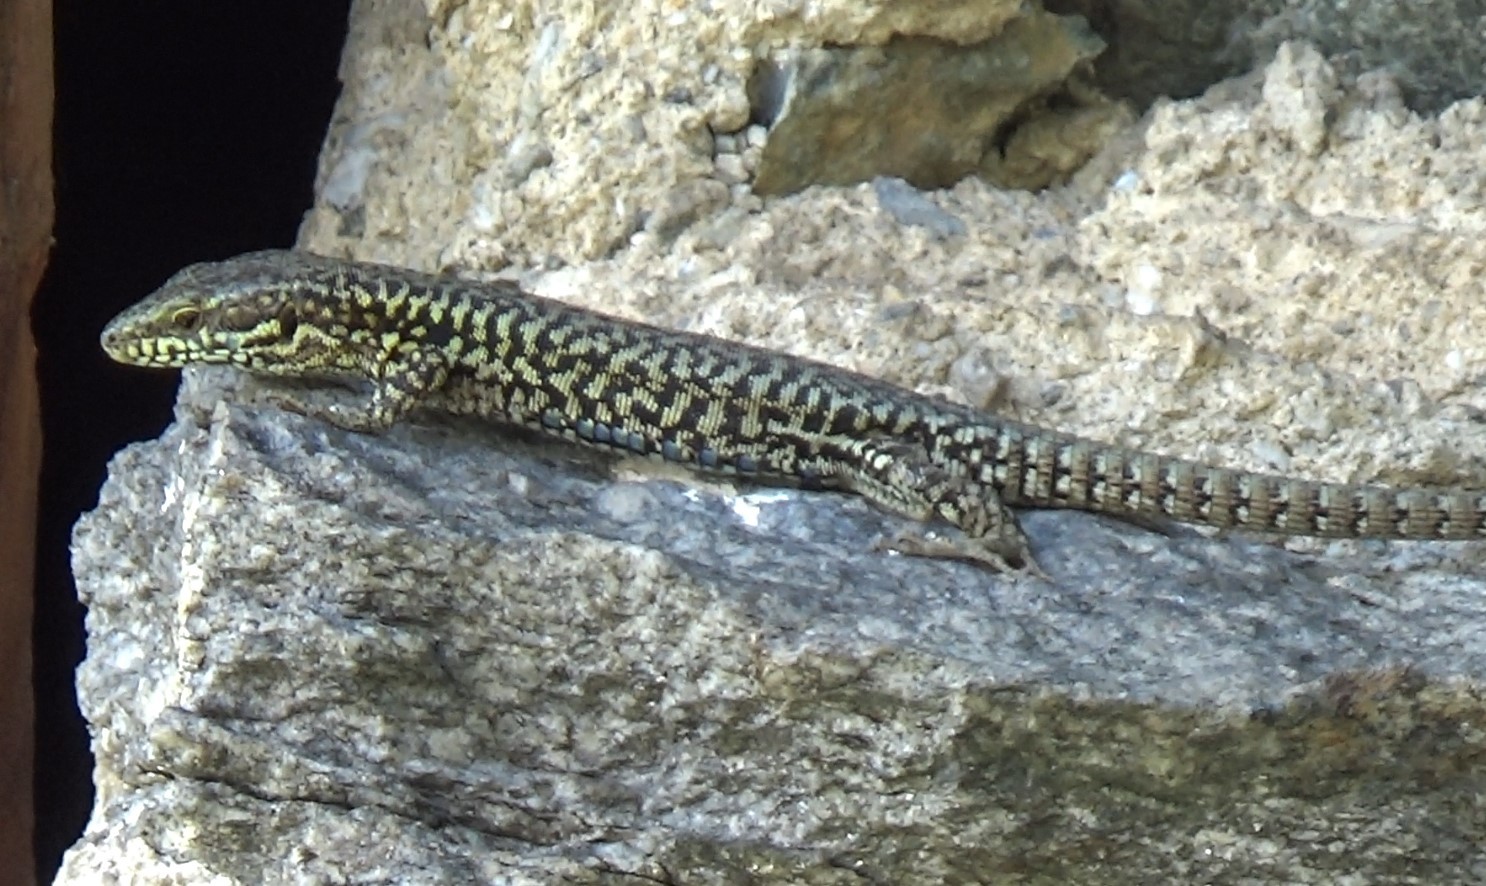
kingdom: Animalia
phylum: Chordata
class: Squamata
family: Lacertidae
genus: Podarcis
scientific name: Podarcis muralis
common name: Common wall lizard
